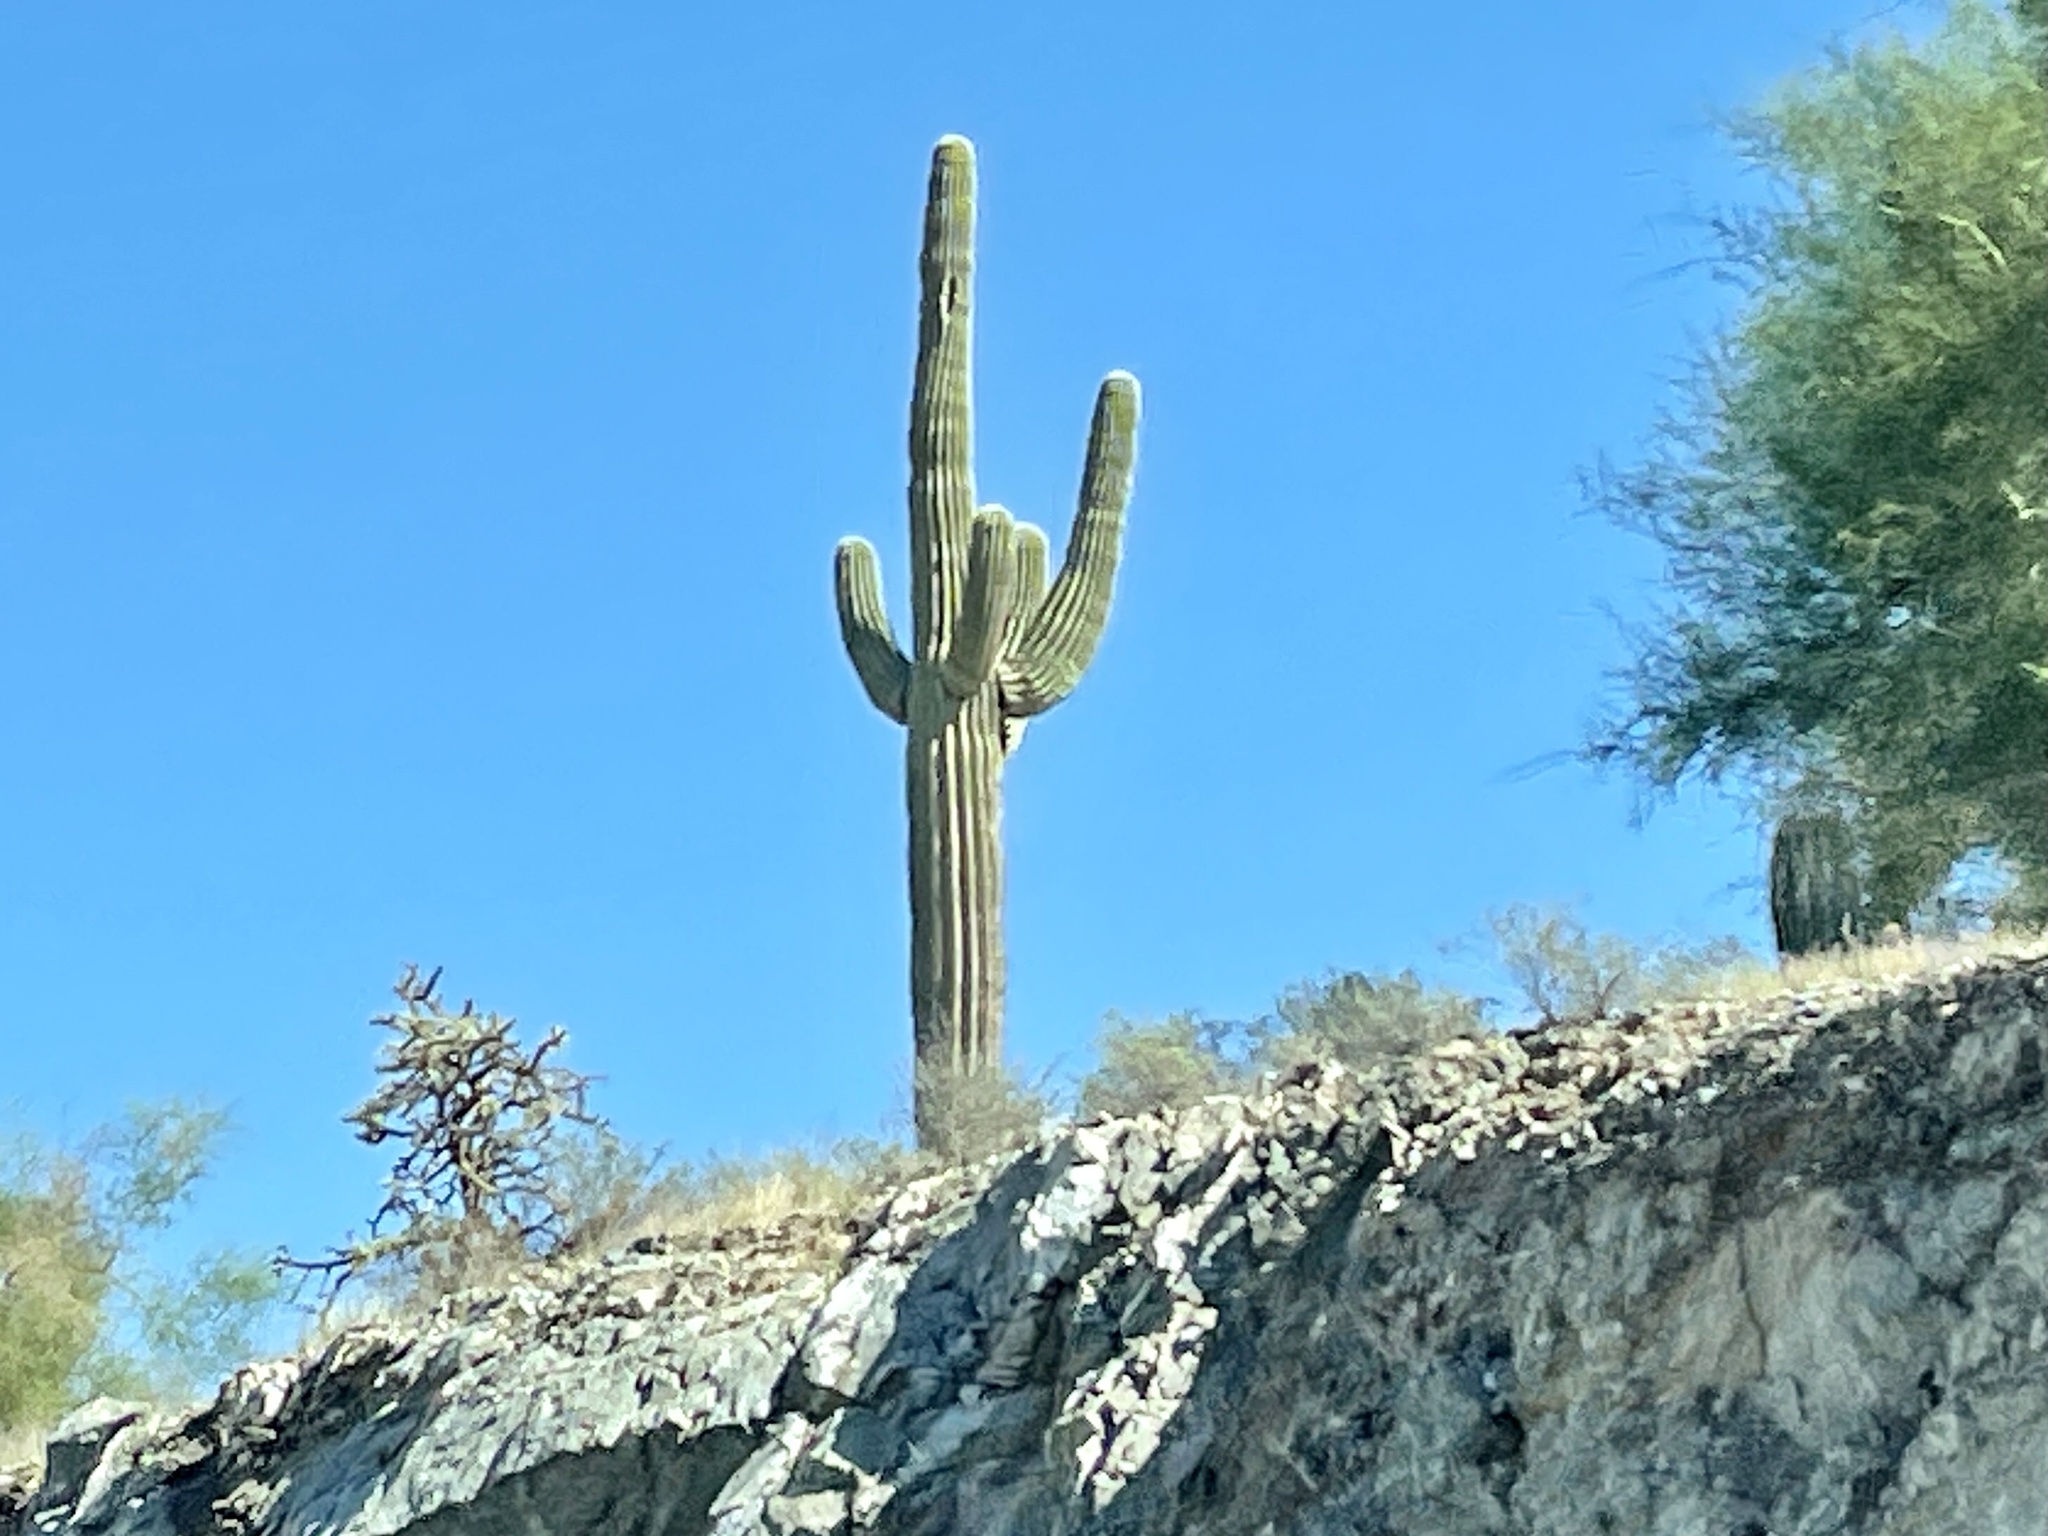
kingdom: Plantae
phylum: Tracheophyta
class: Magnoliopsida
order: Caryophyllales
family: Cactaceae
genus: Carnegiea
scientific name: Carnegiea gigantea
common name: Saguaro
